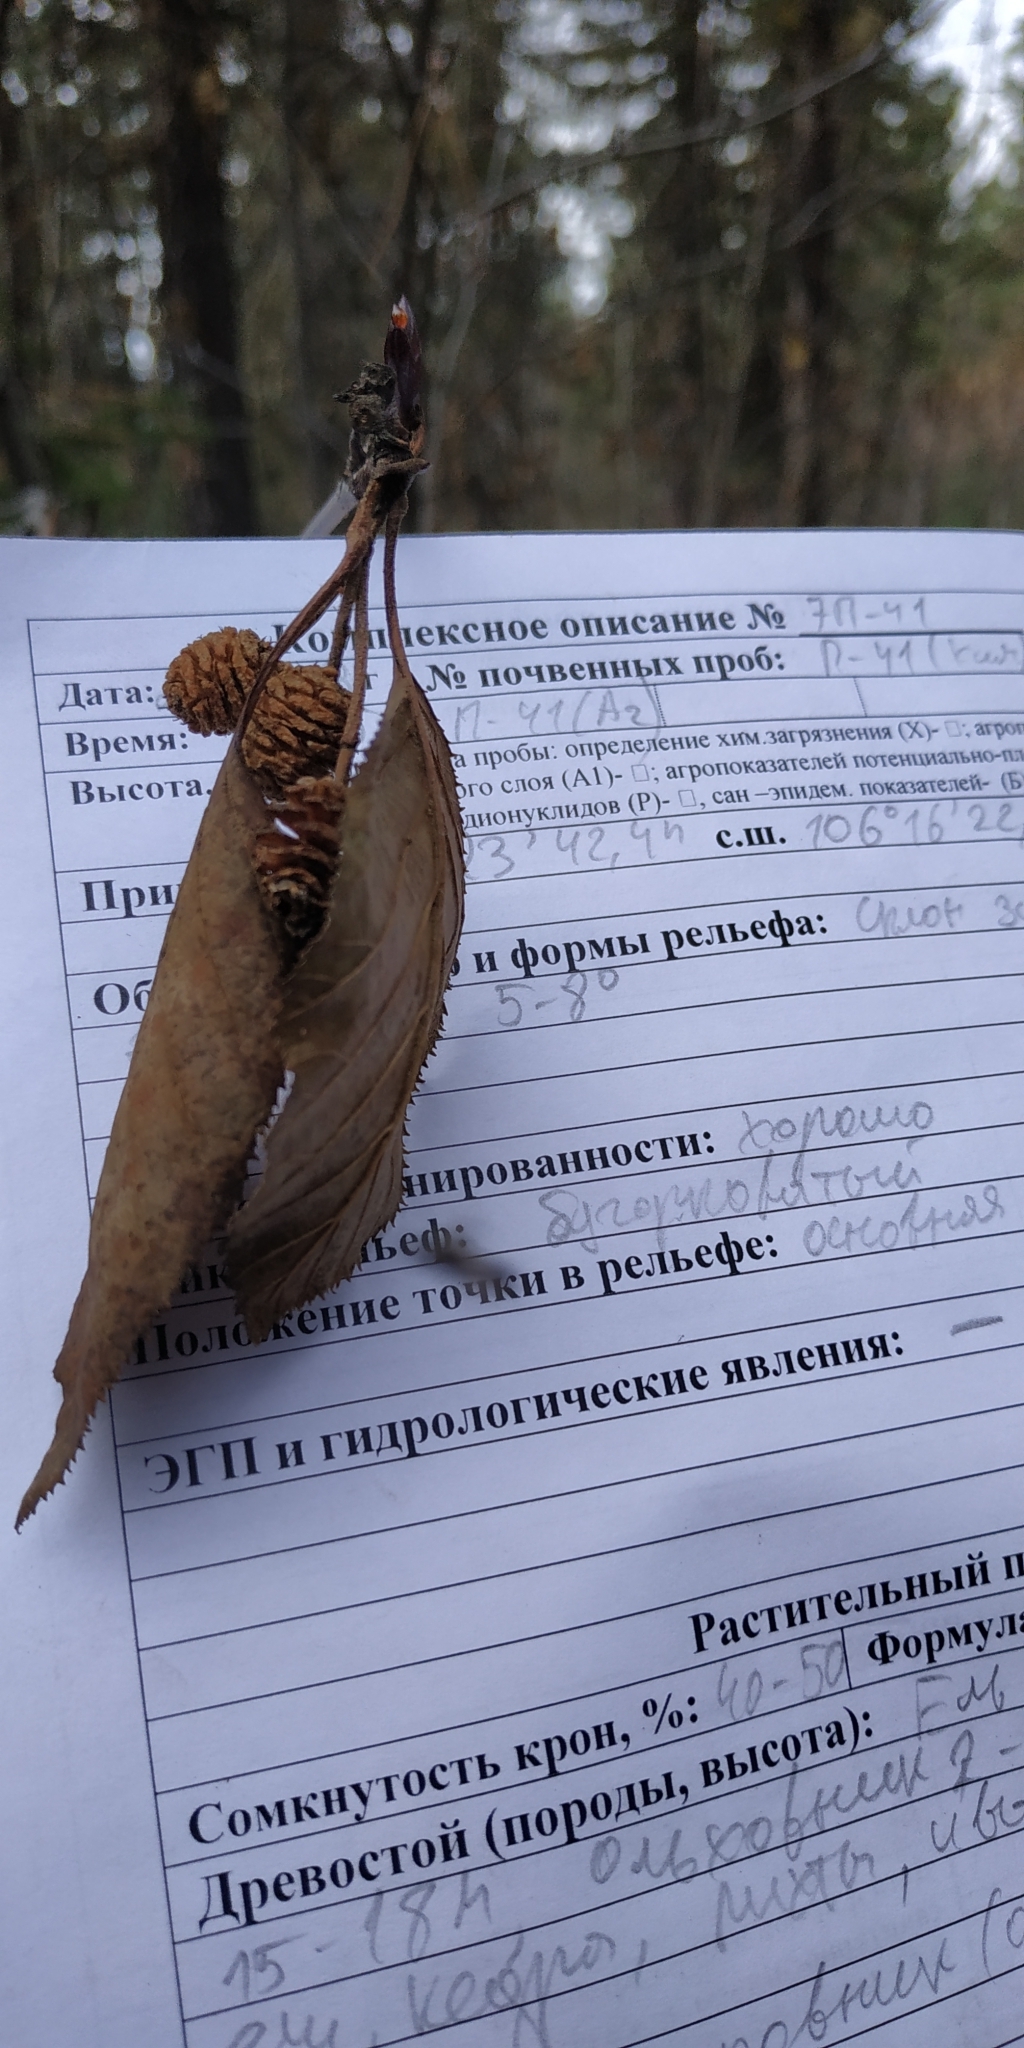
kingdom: Plantae
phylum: Tracheophyta
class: Magnoliopsida
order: Fagales
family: Betulaceae
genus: Alnus
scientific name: Alnus hirsuta
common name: Manchurian alder
